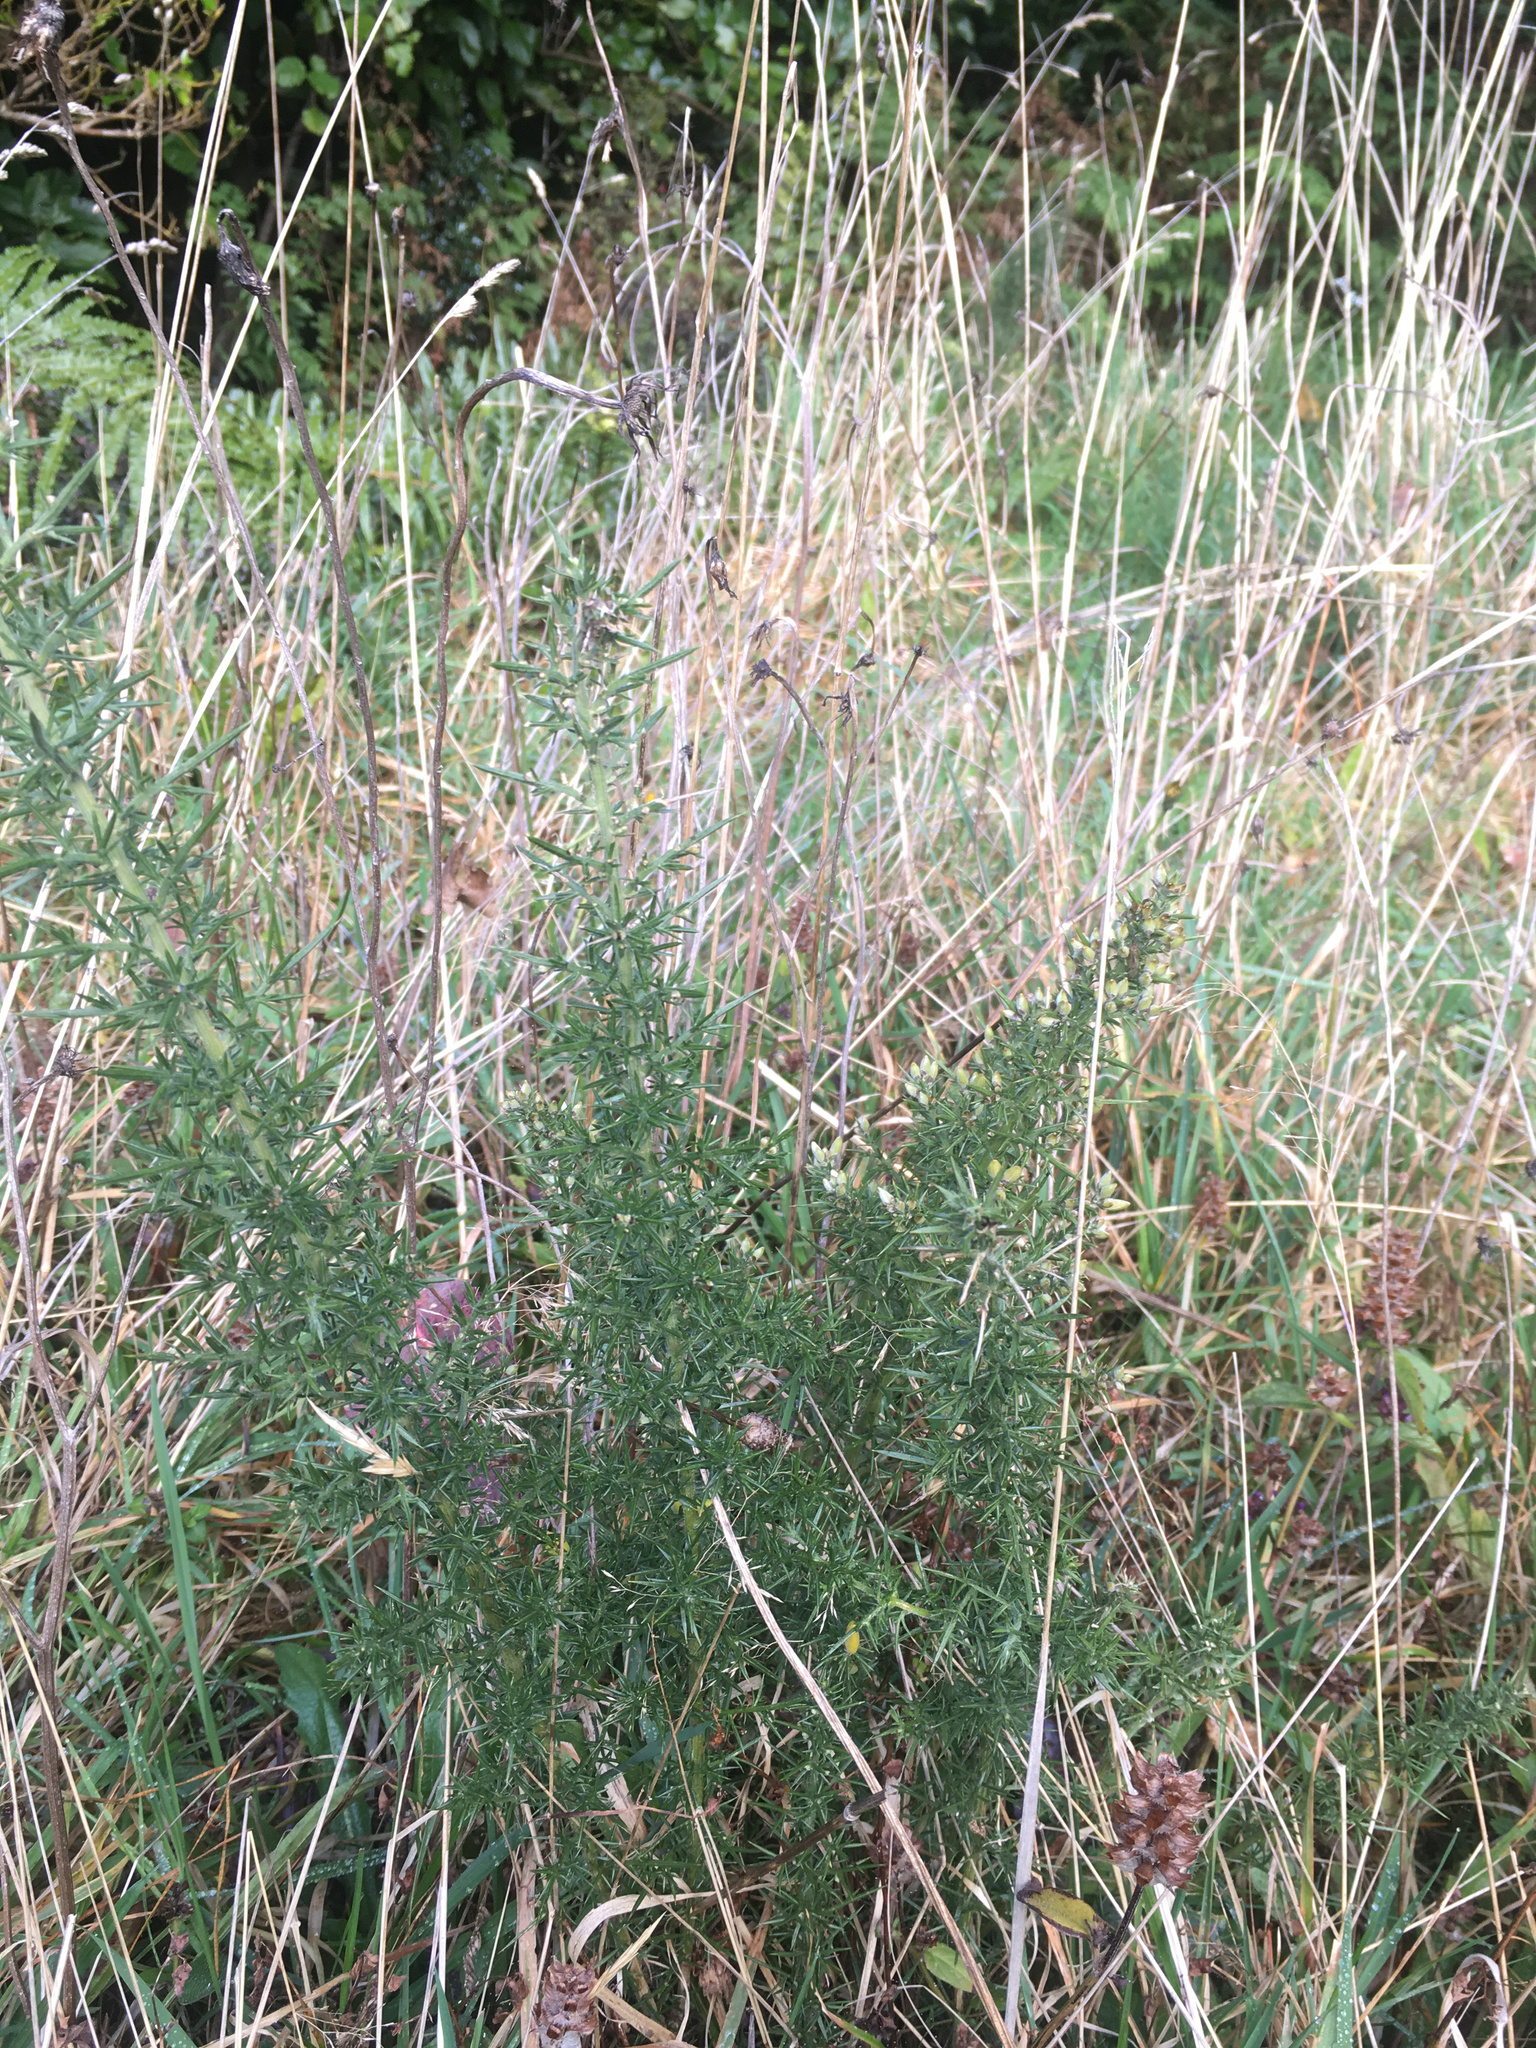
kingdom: Plantae
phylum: Tracheophyta
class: Magnoliopsida
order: Fabales
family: Fabaceae
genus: Ulex
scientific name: Ulex europaeus
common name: Common gorse
